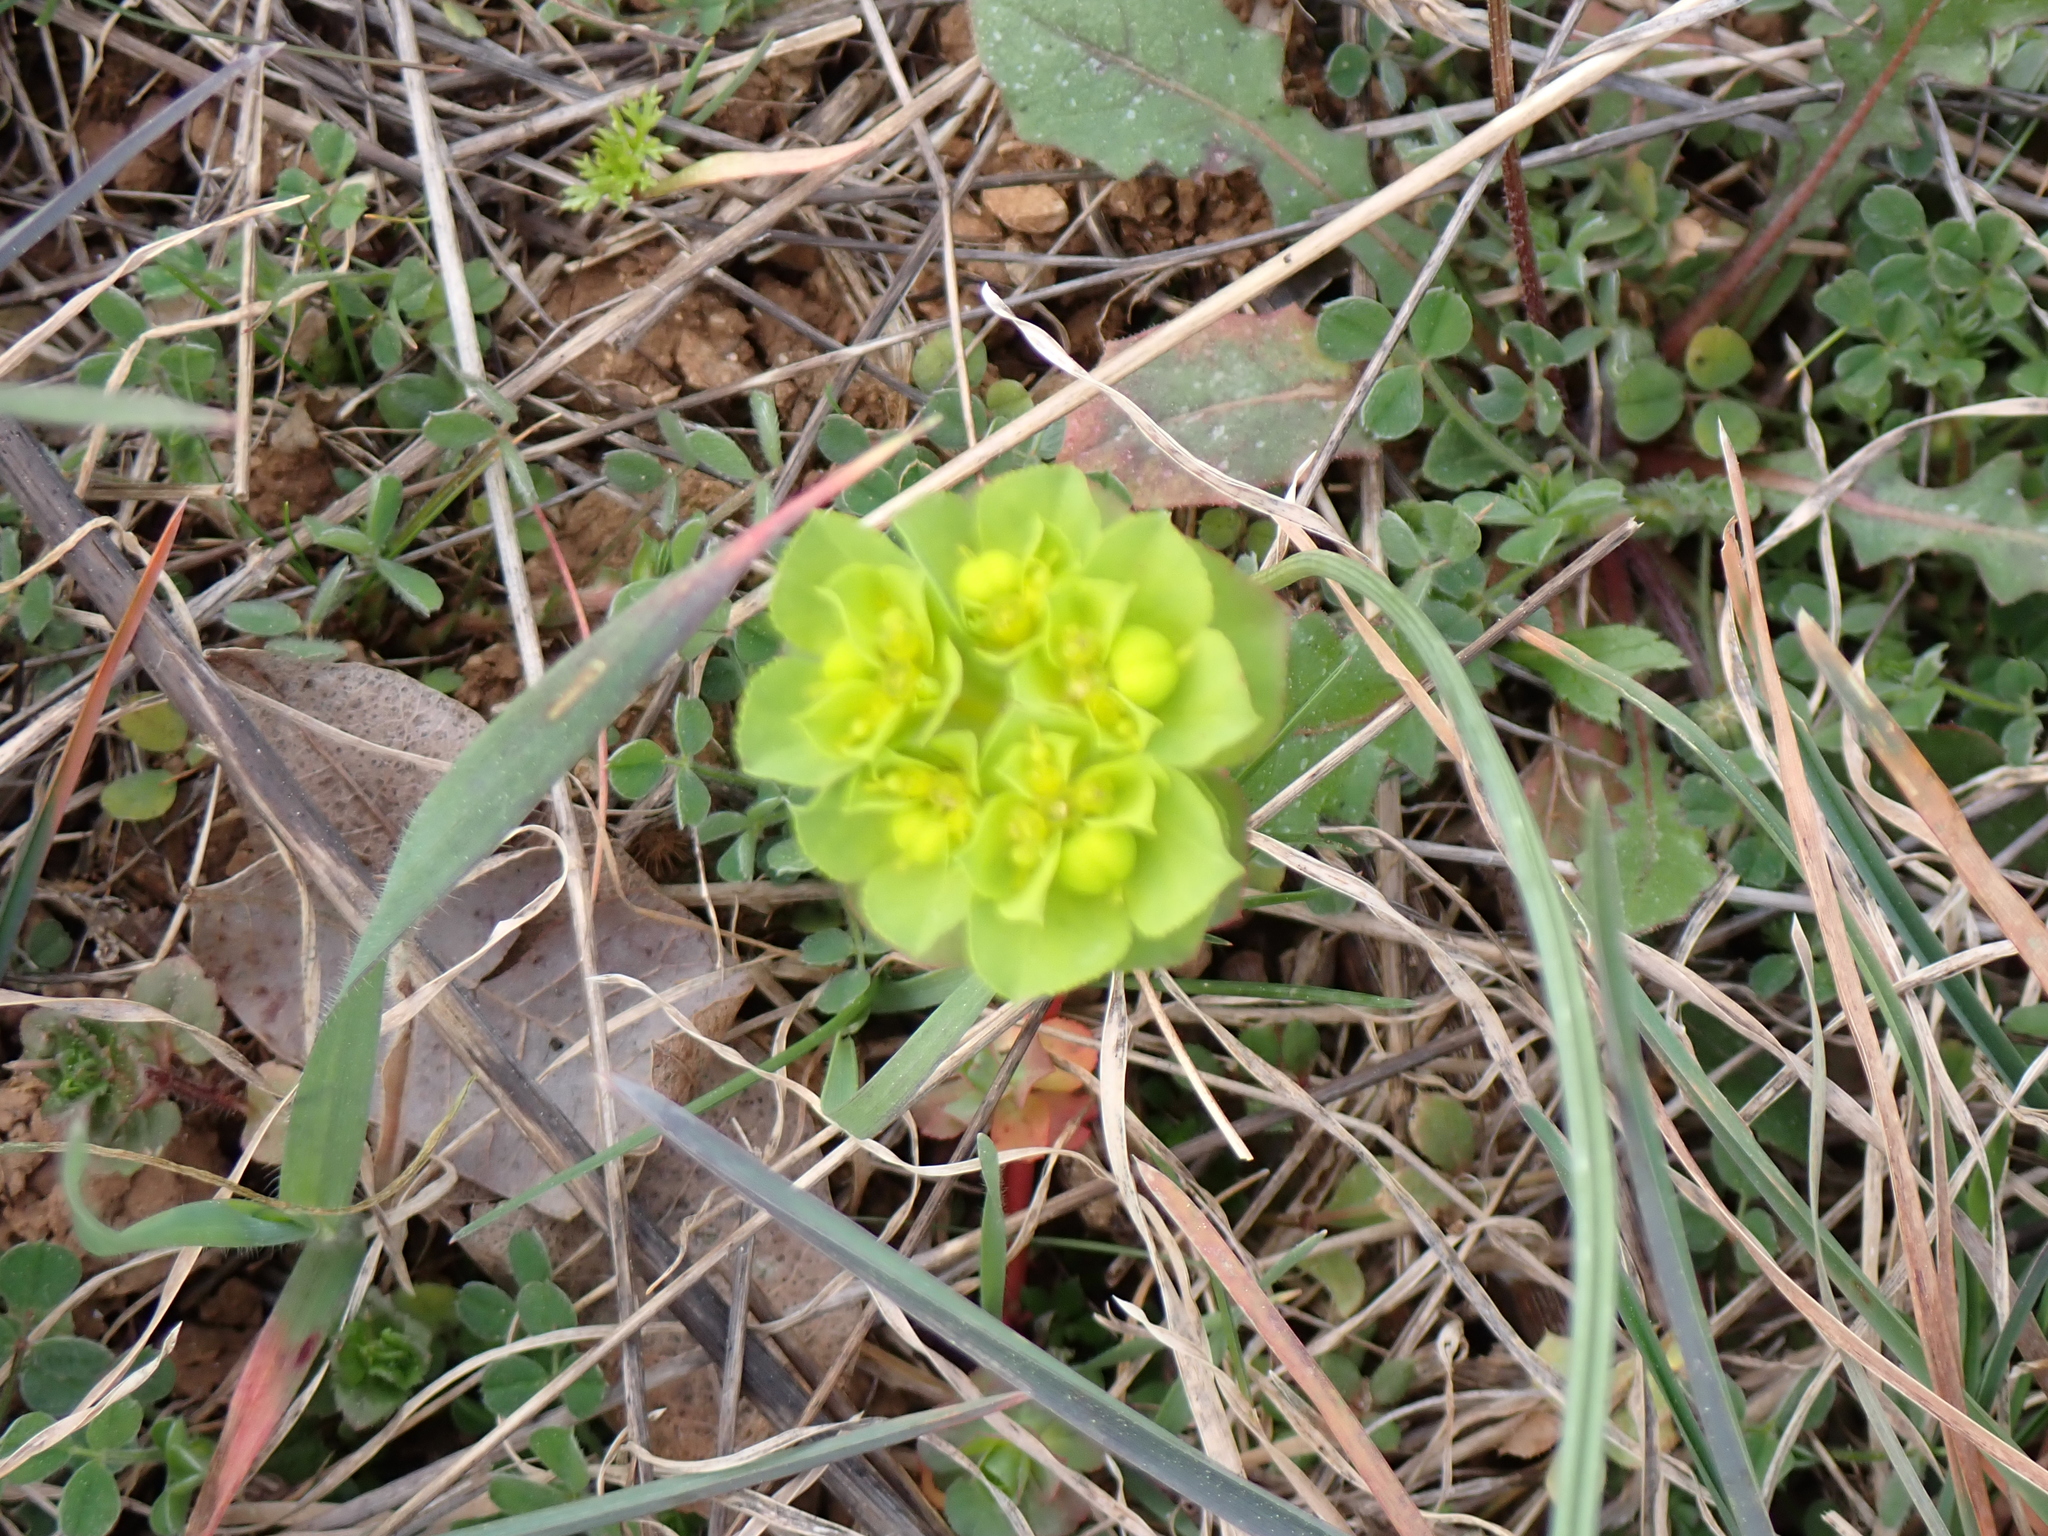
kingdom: Plantae
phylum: Tracheophyta
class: Magnoliopsida
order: Malpighiales
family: Euphorbiaceae
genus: Euphorbia
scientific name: Euphorbia helioscopia
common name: Sun spurge
